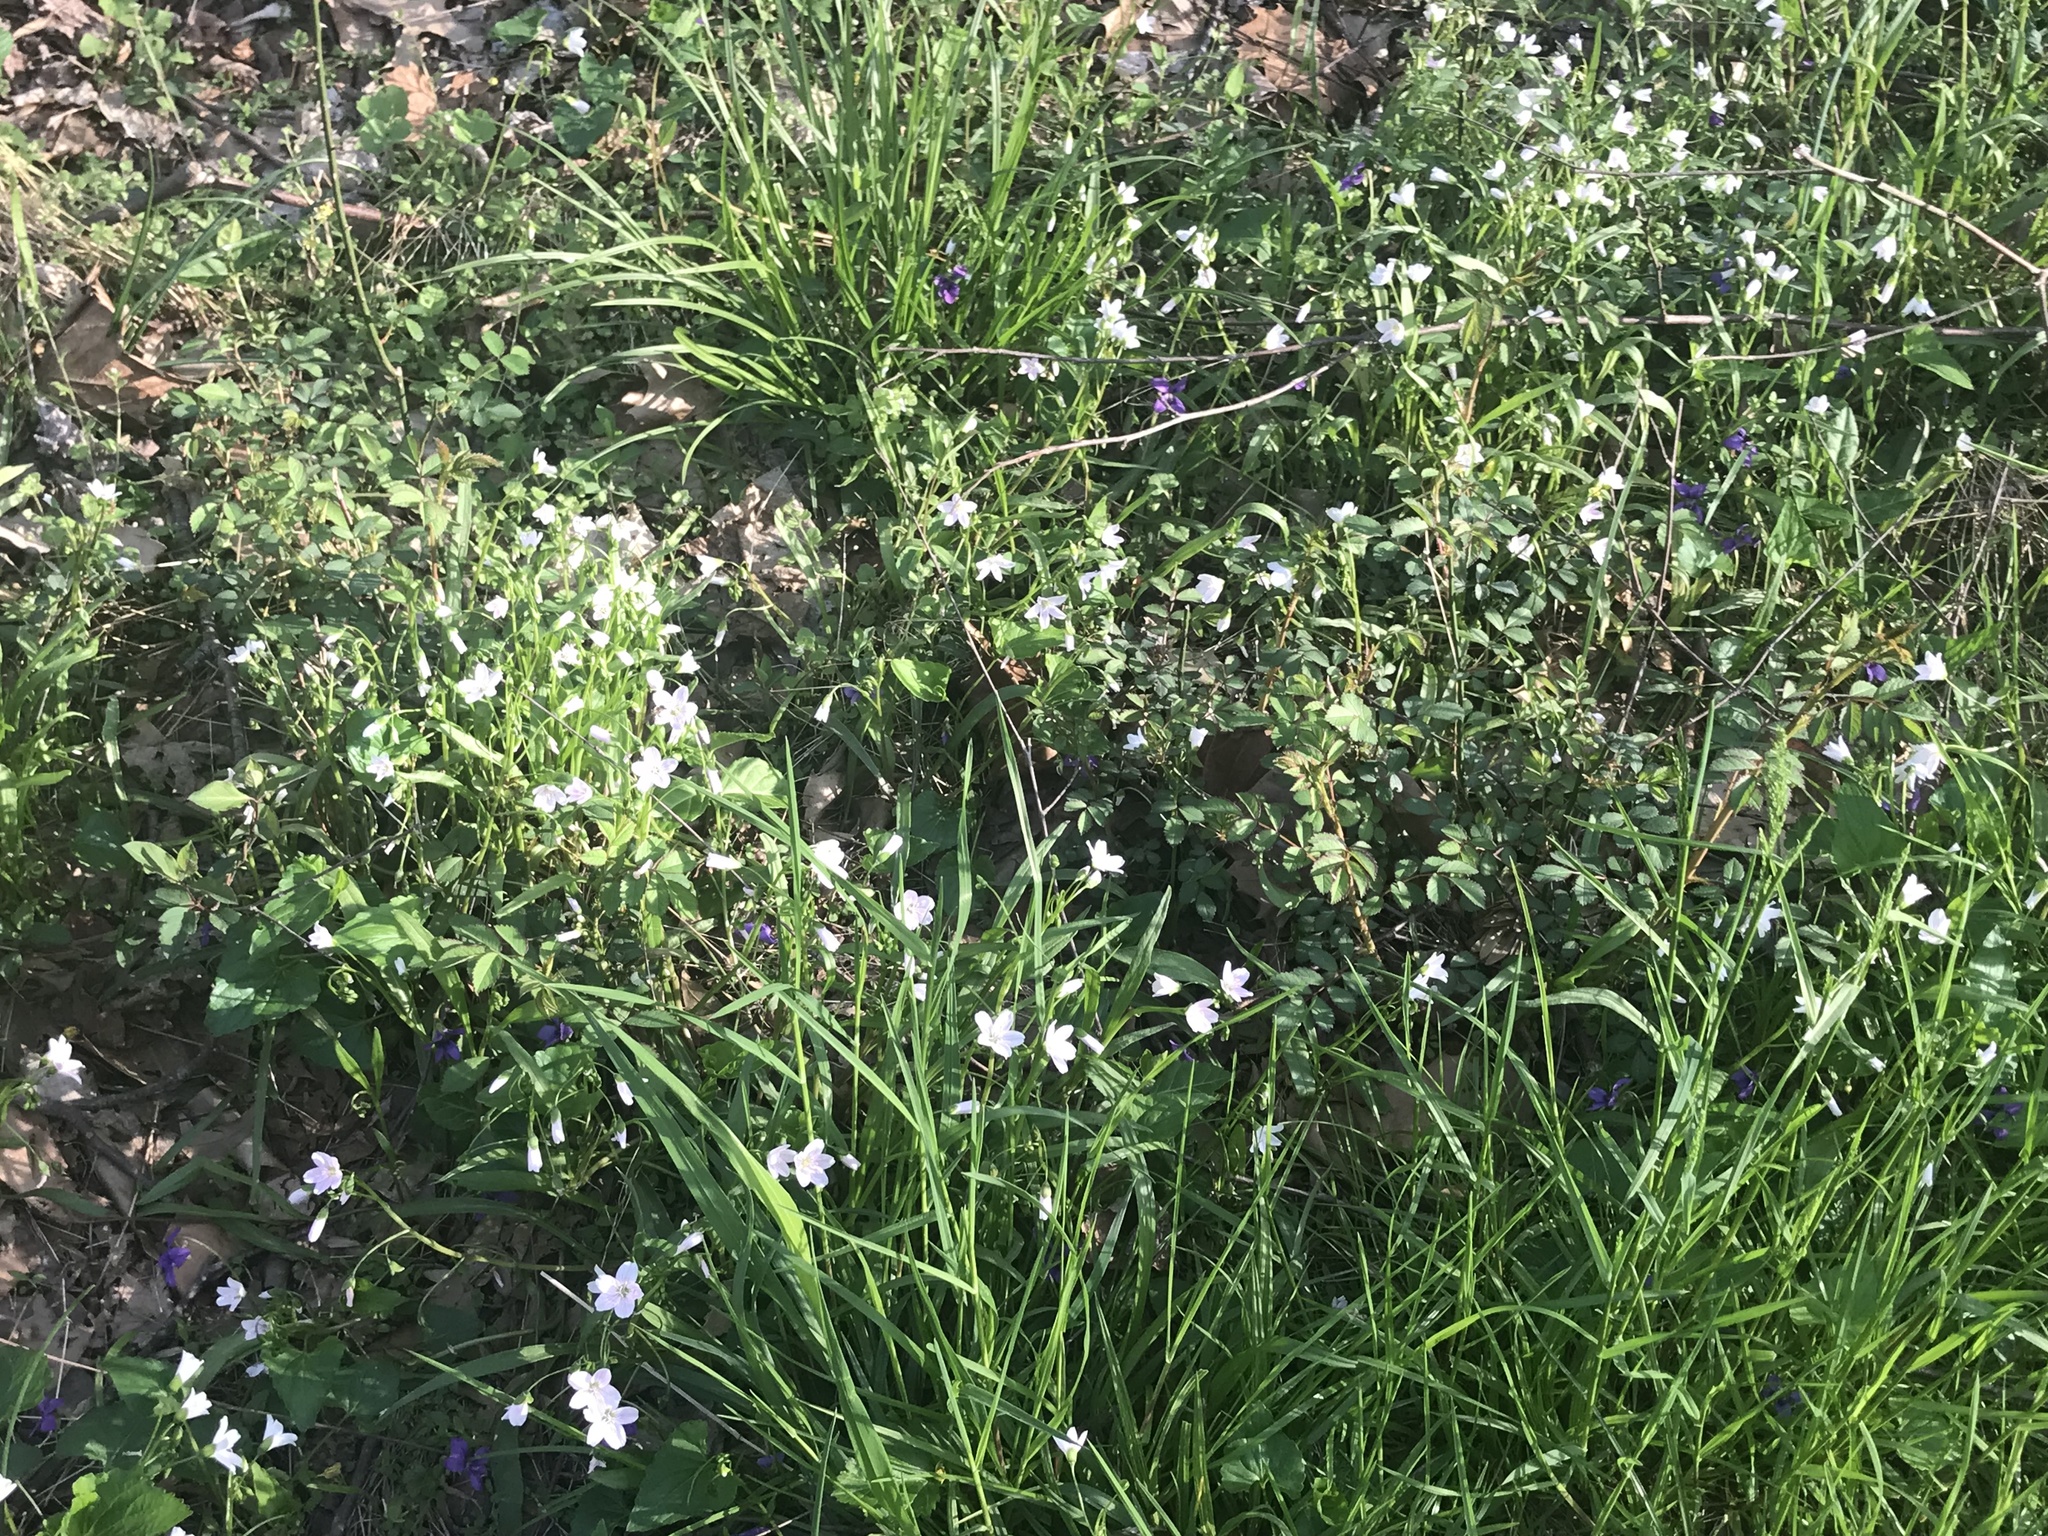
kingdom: Plantae
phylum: Tracheophyta
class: Magnoliopsida
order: Caryophyllales
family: Montiaceae
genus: Claytonia
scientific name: Claytonia virginica
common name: Virginia springbeauty
